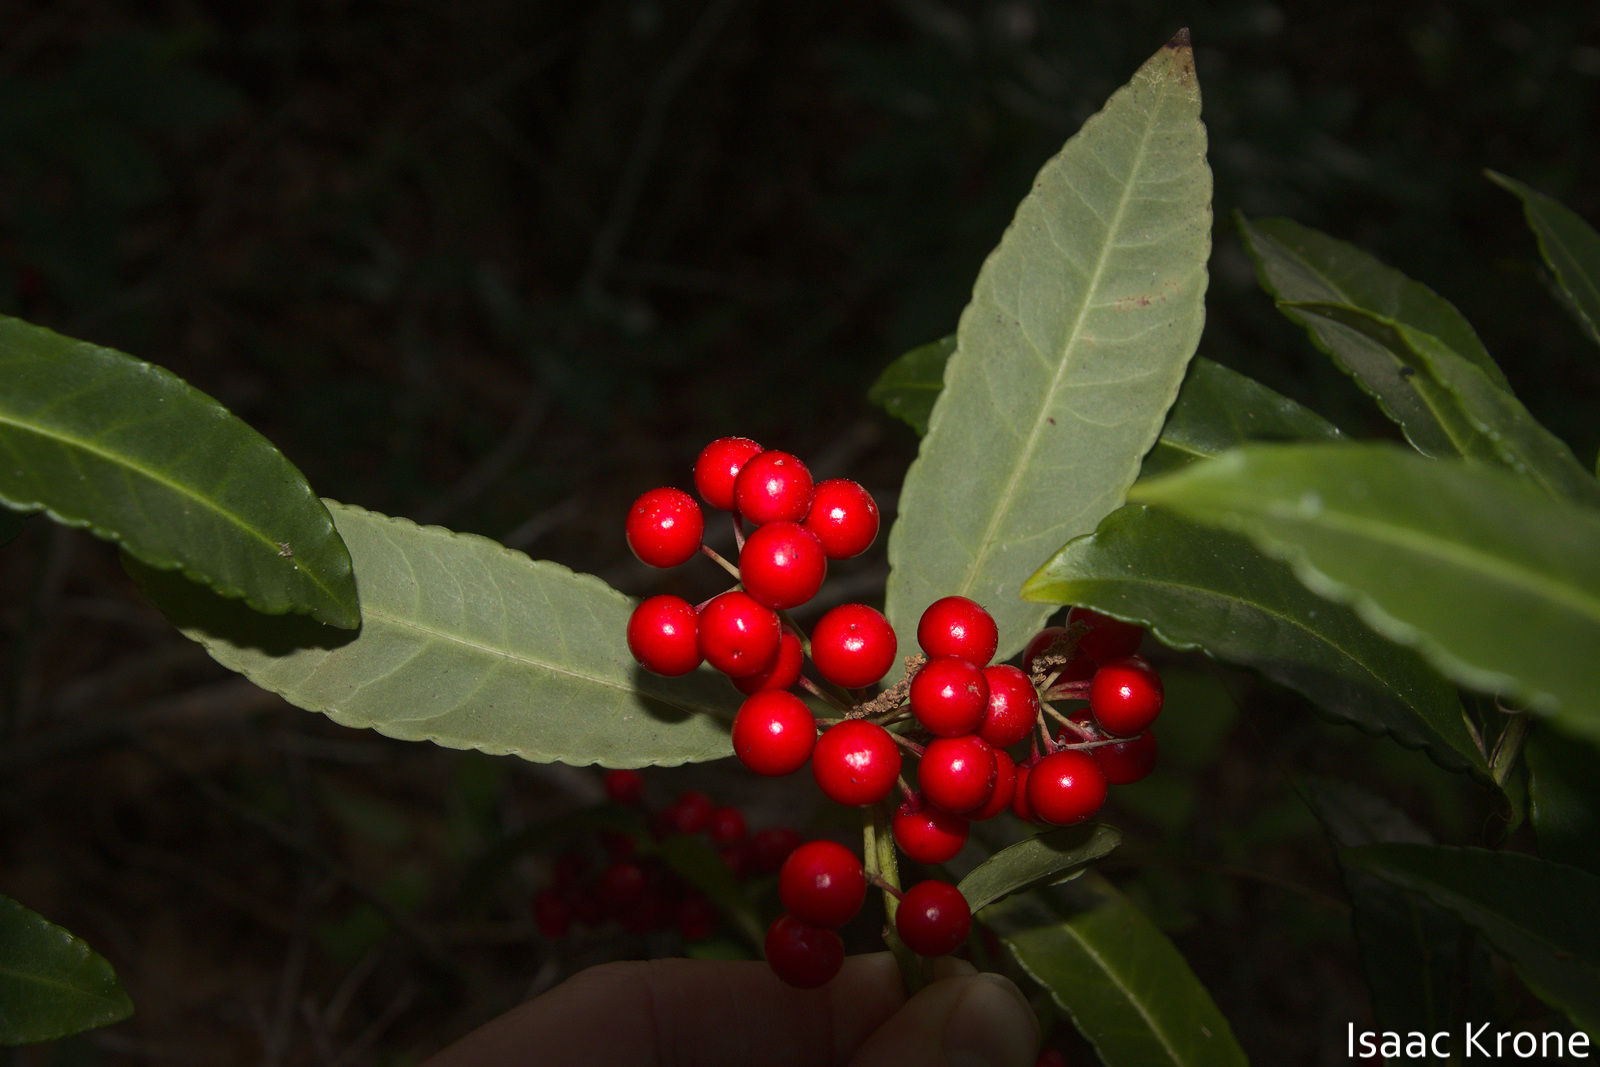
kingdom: Plantae
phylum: Tracheophyta
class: Magnoliopsida
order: Ericales
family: Primulaceae
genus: Ardisia
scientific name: Ardisia crenata
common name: Hen's eyes
